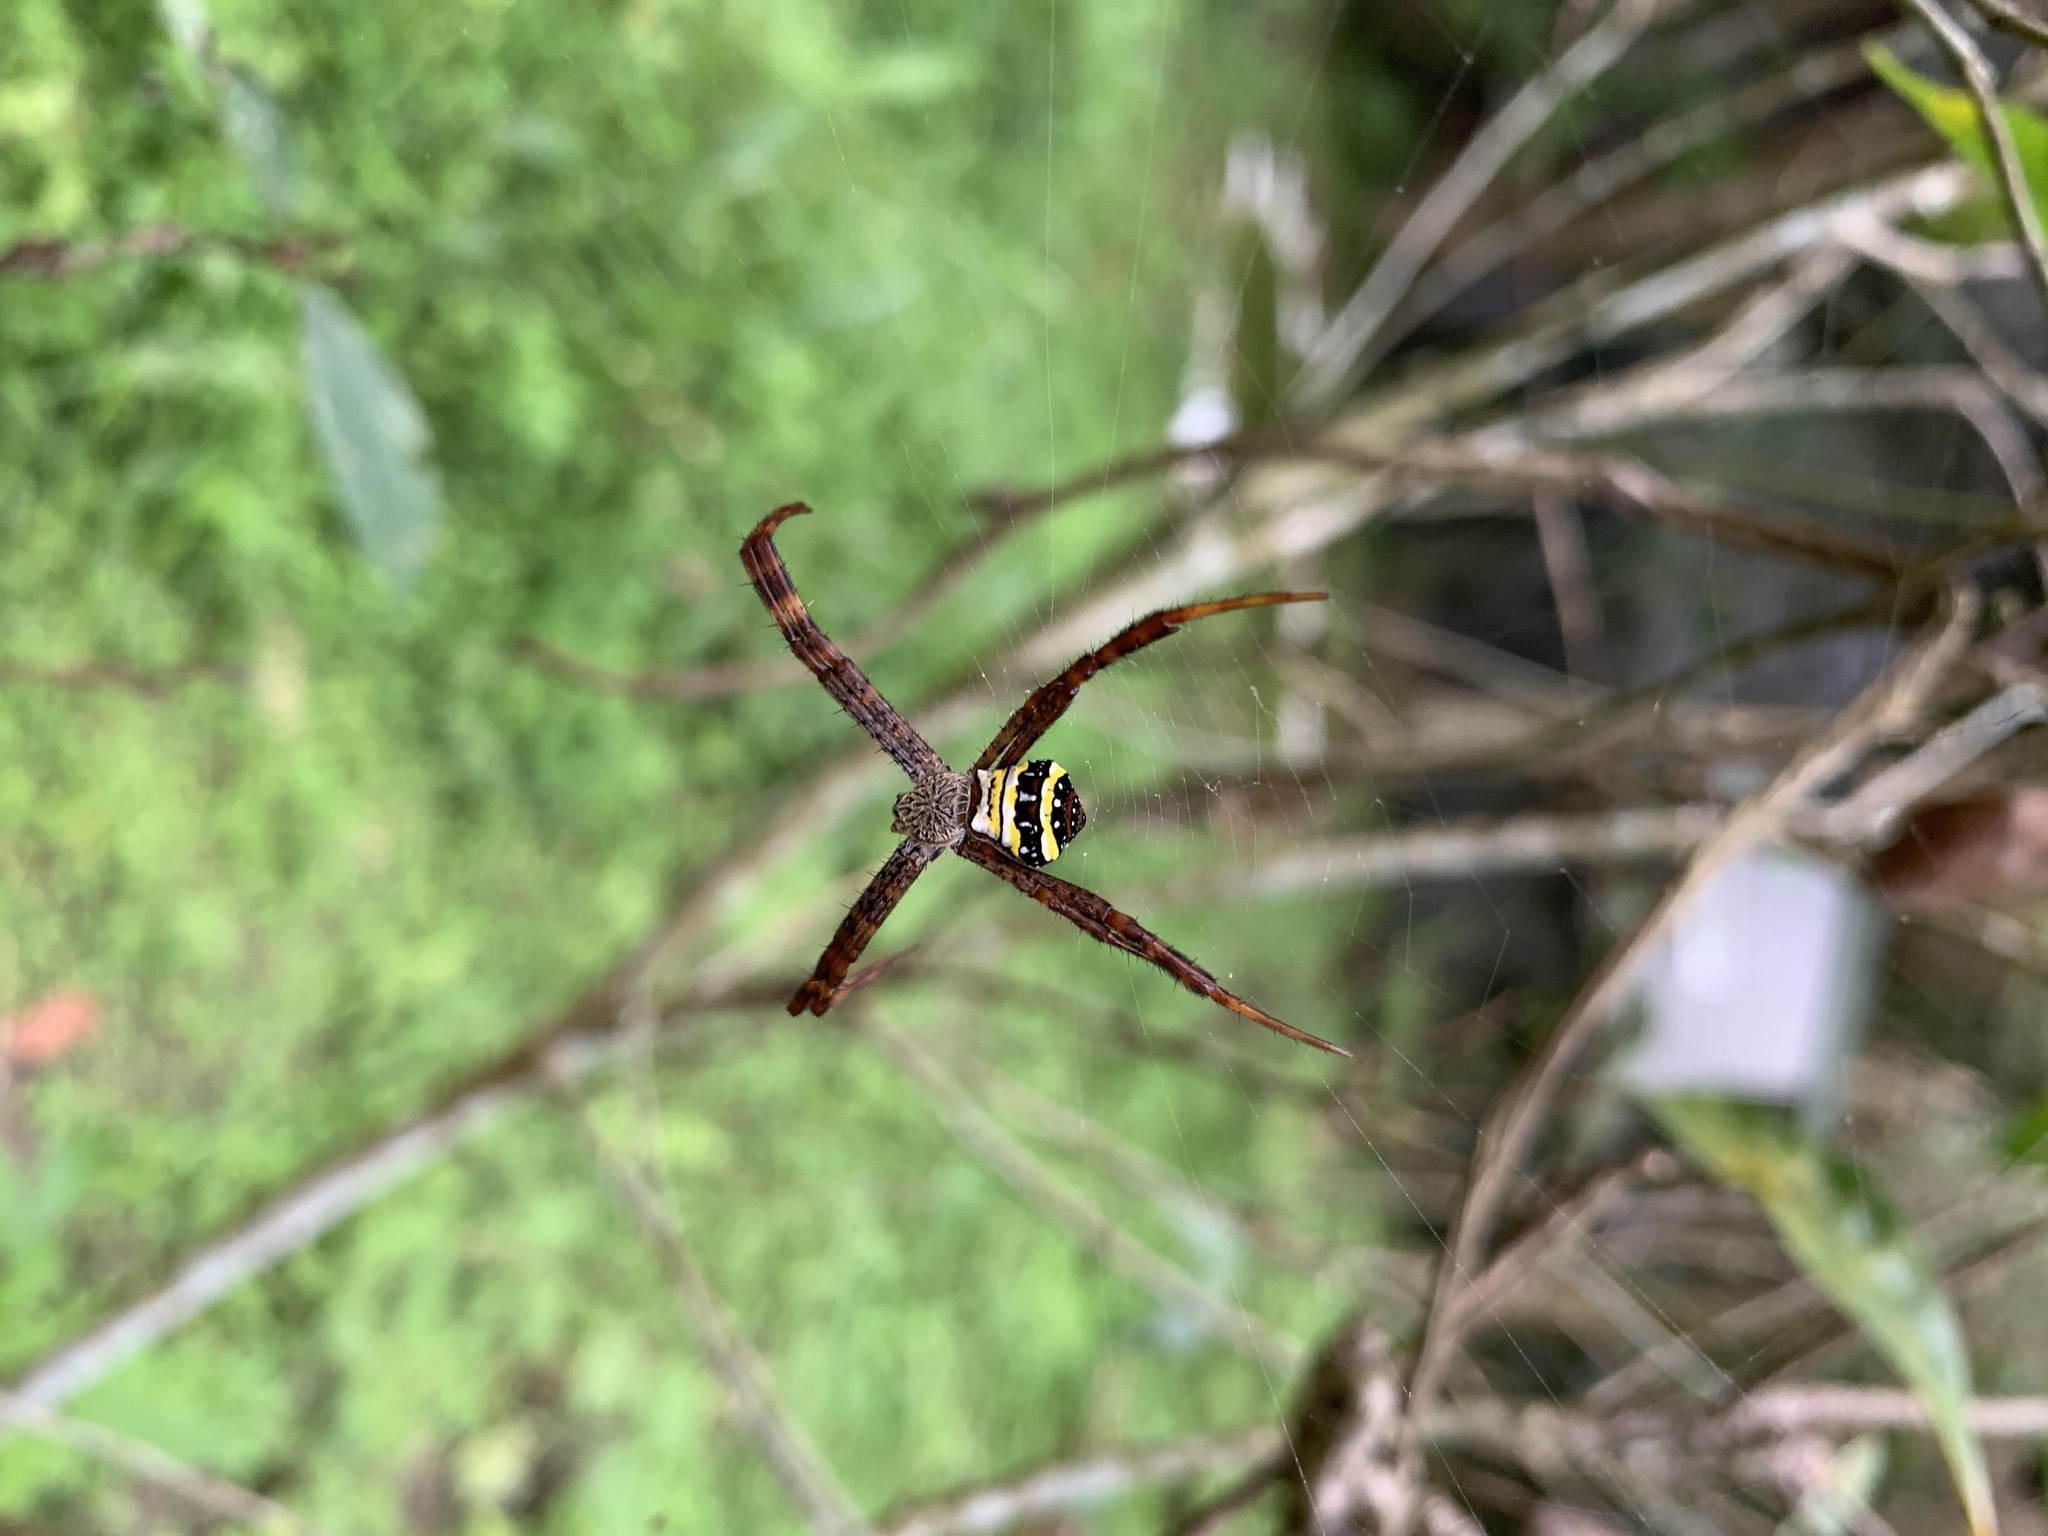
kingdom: Animalia
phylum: Arthropoda
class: Arachnida
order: Araneae
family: Araneidae
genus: Argiope
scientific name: Argiope aetheroides
